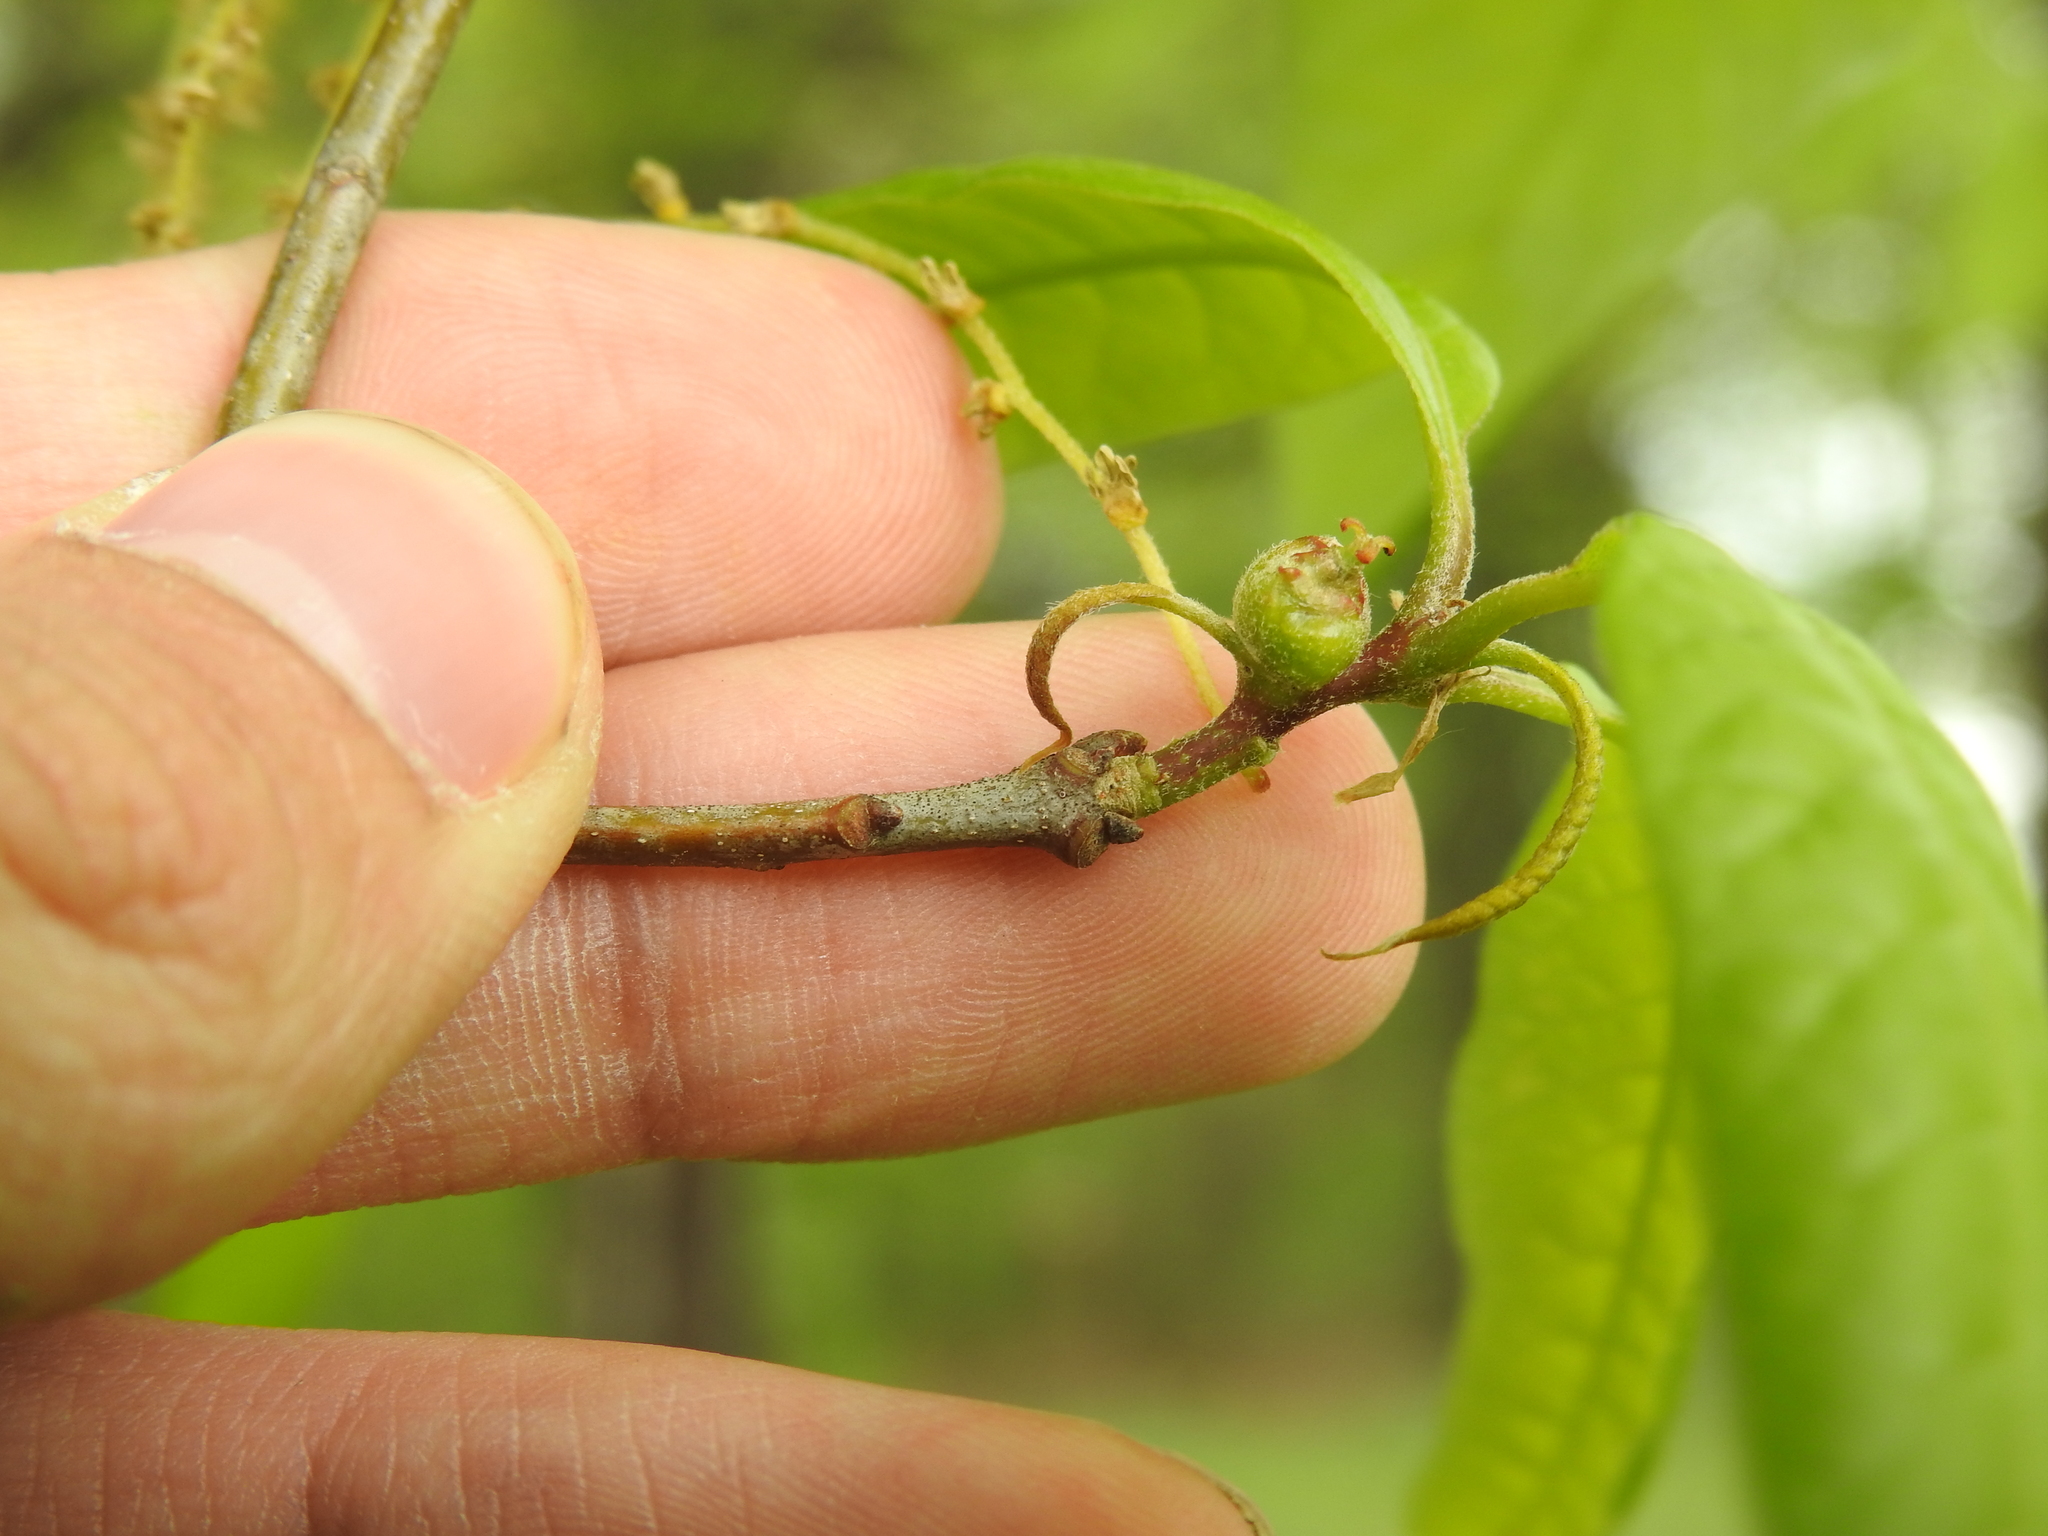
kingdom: Animalia
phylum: Arthropoda
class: Insecta
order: Hymenoptera
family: Cynipidae
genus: Zapatella
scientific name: Zapatella quercusphellos
